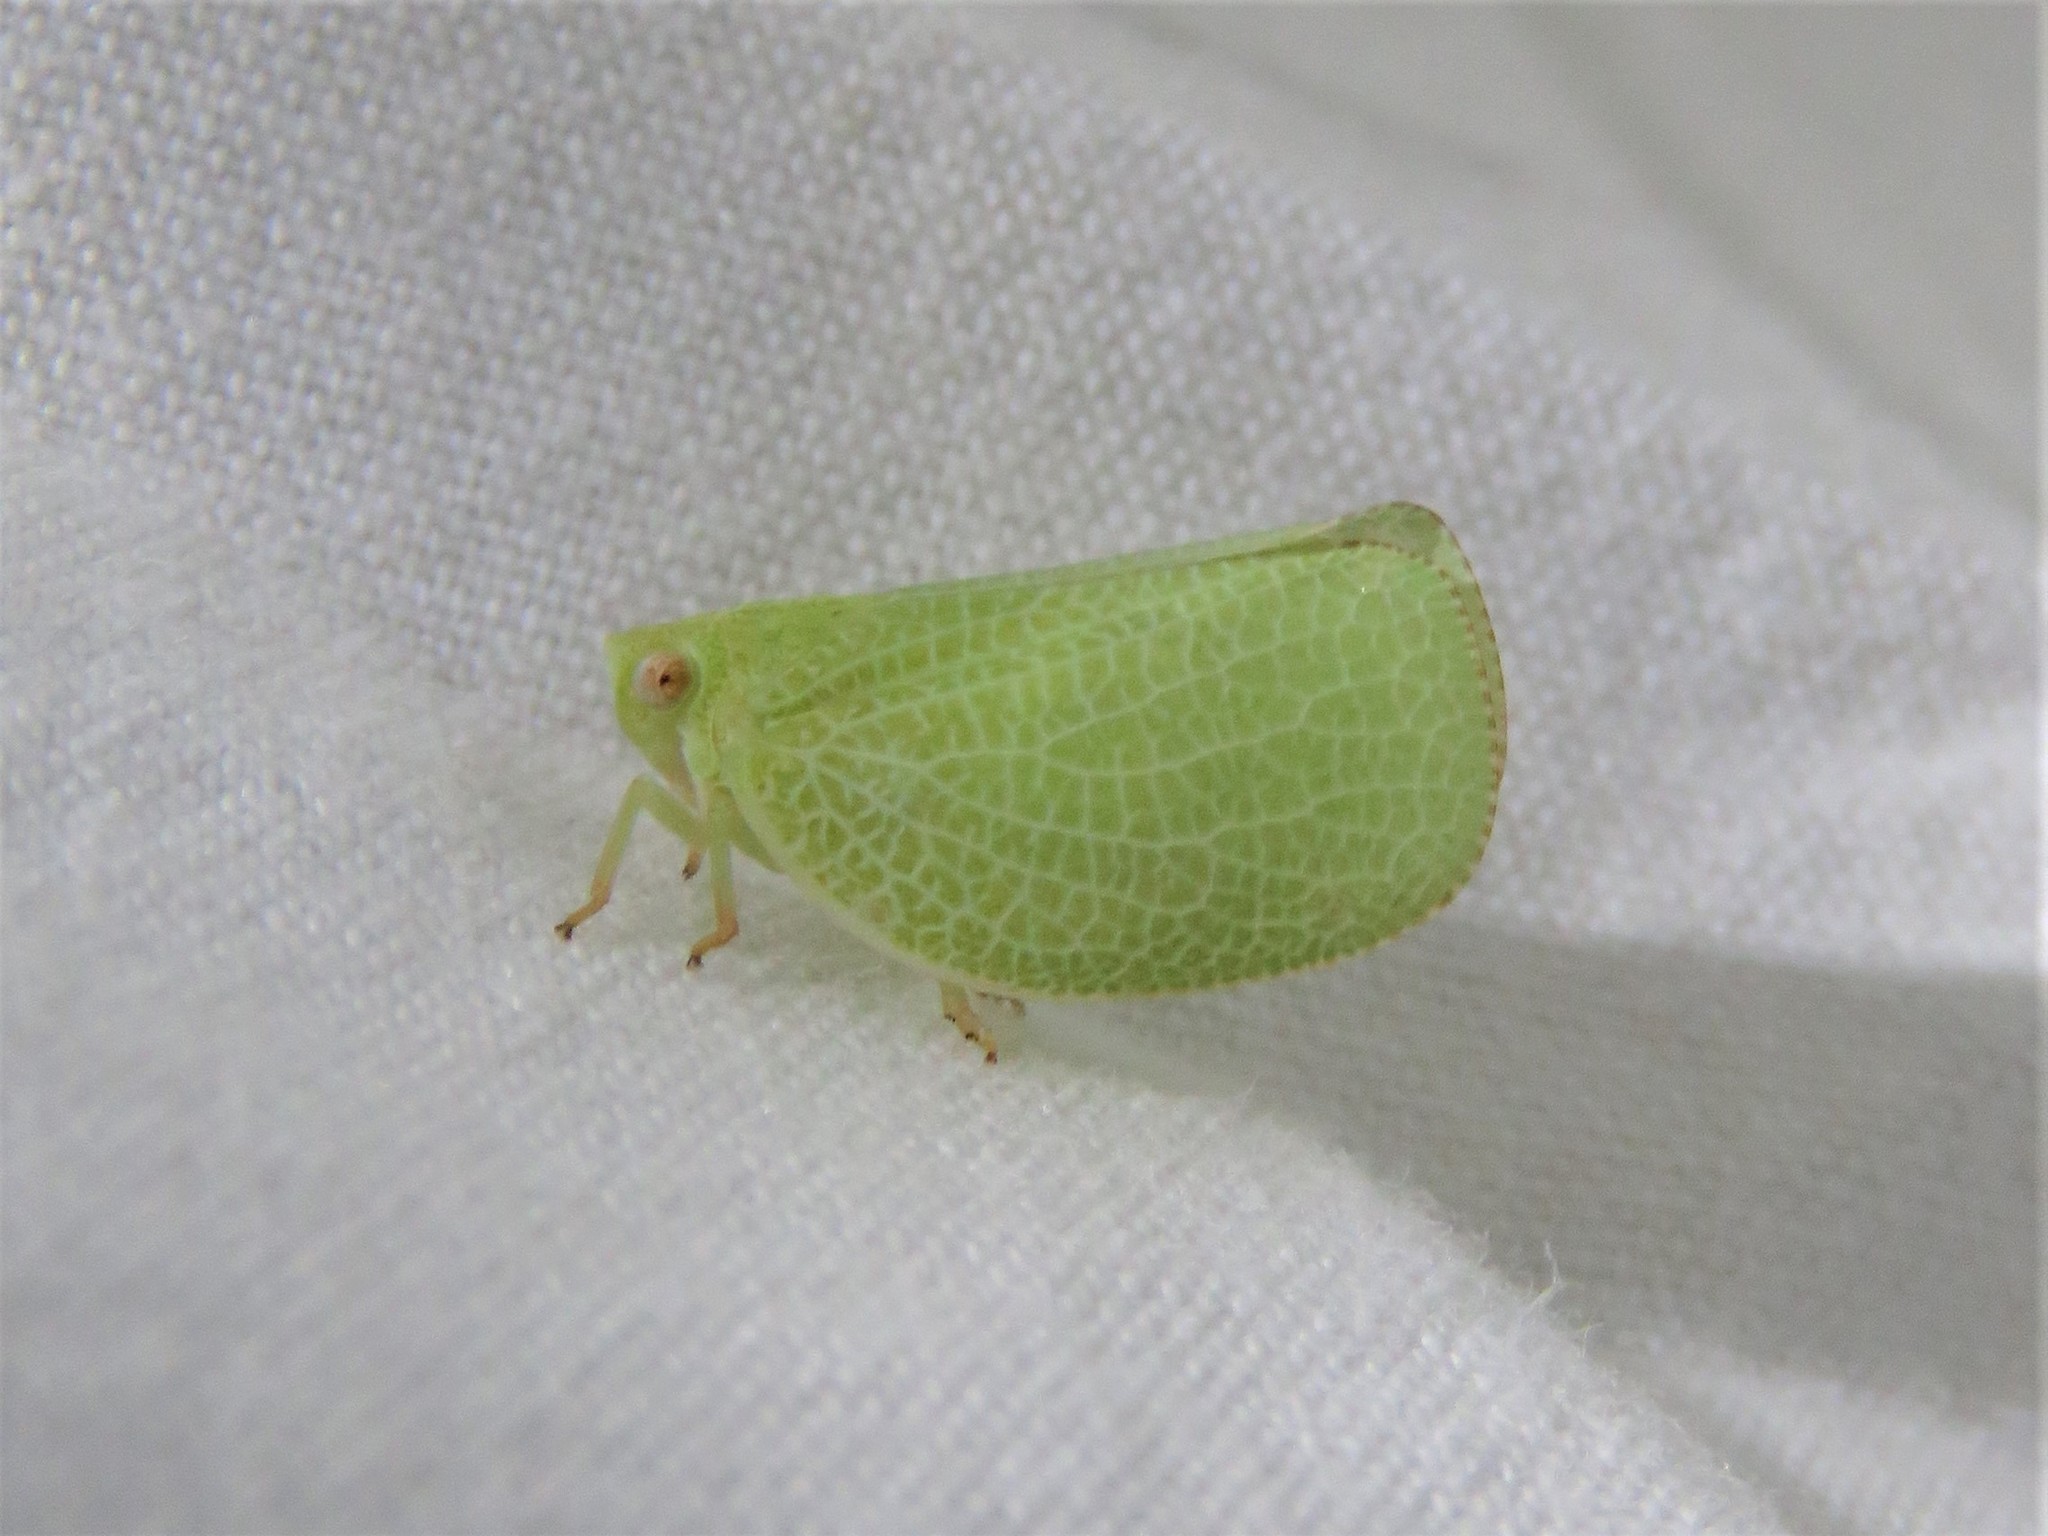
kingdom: Animalia
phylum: Arthropoda
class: Insecta
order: Hemiptera
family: Acanaloniidae
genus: Acanalonia
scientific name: Acanalonia conica
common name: Green cone-headed planthopper
